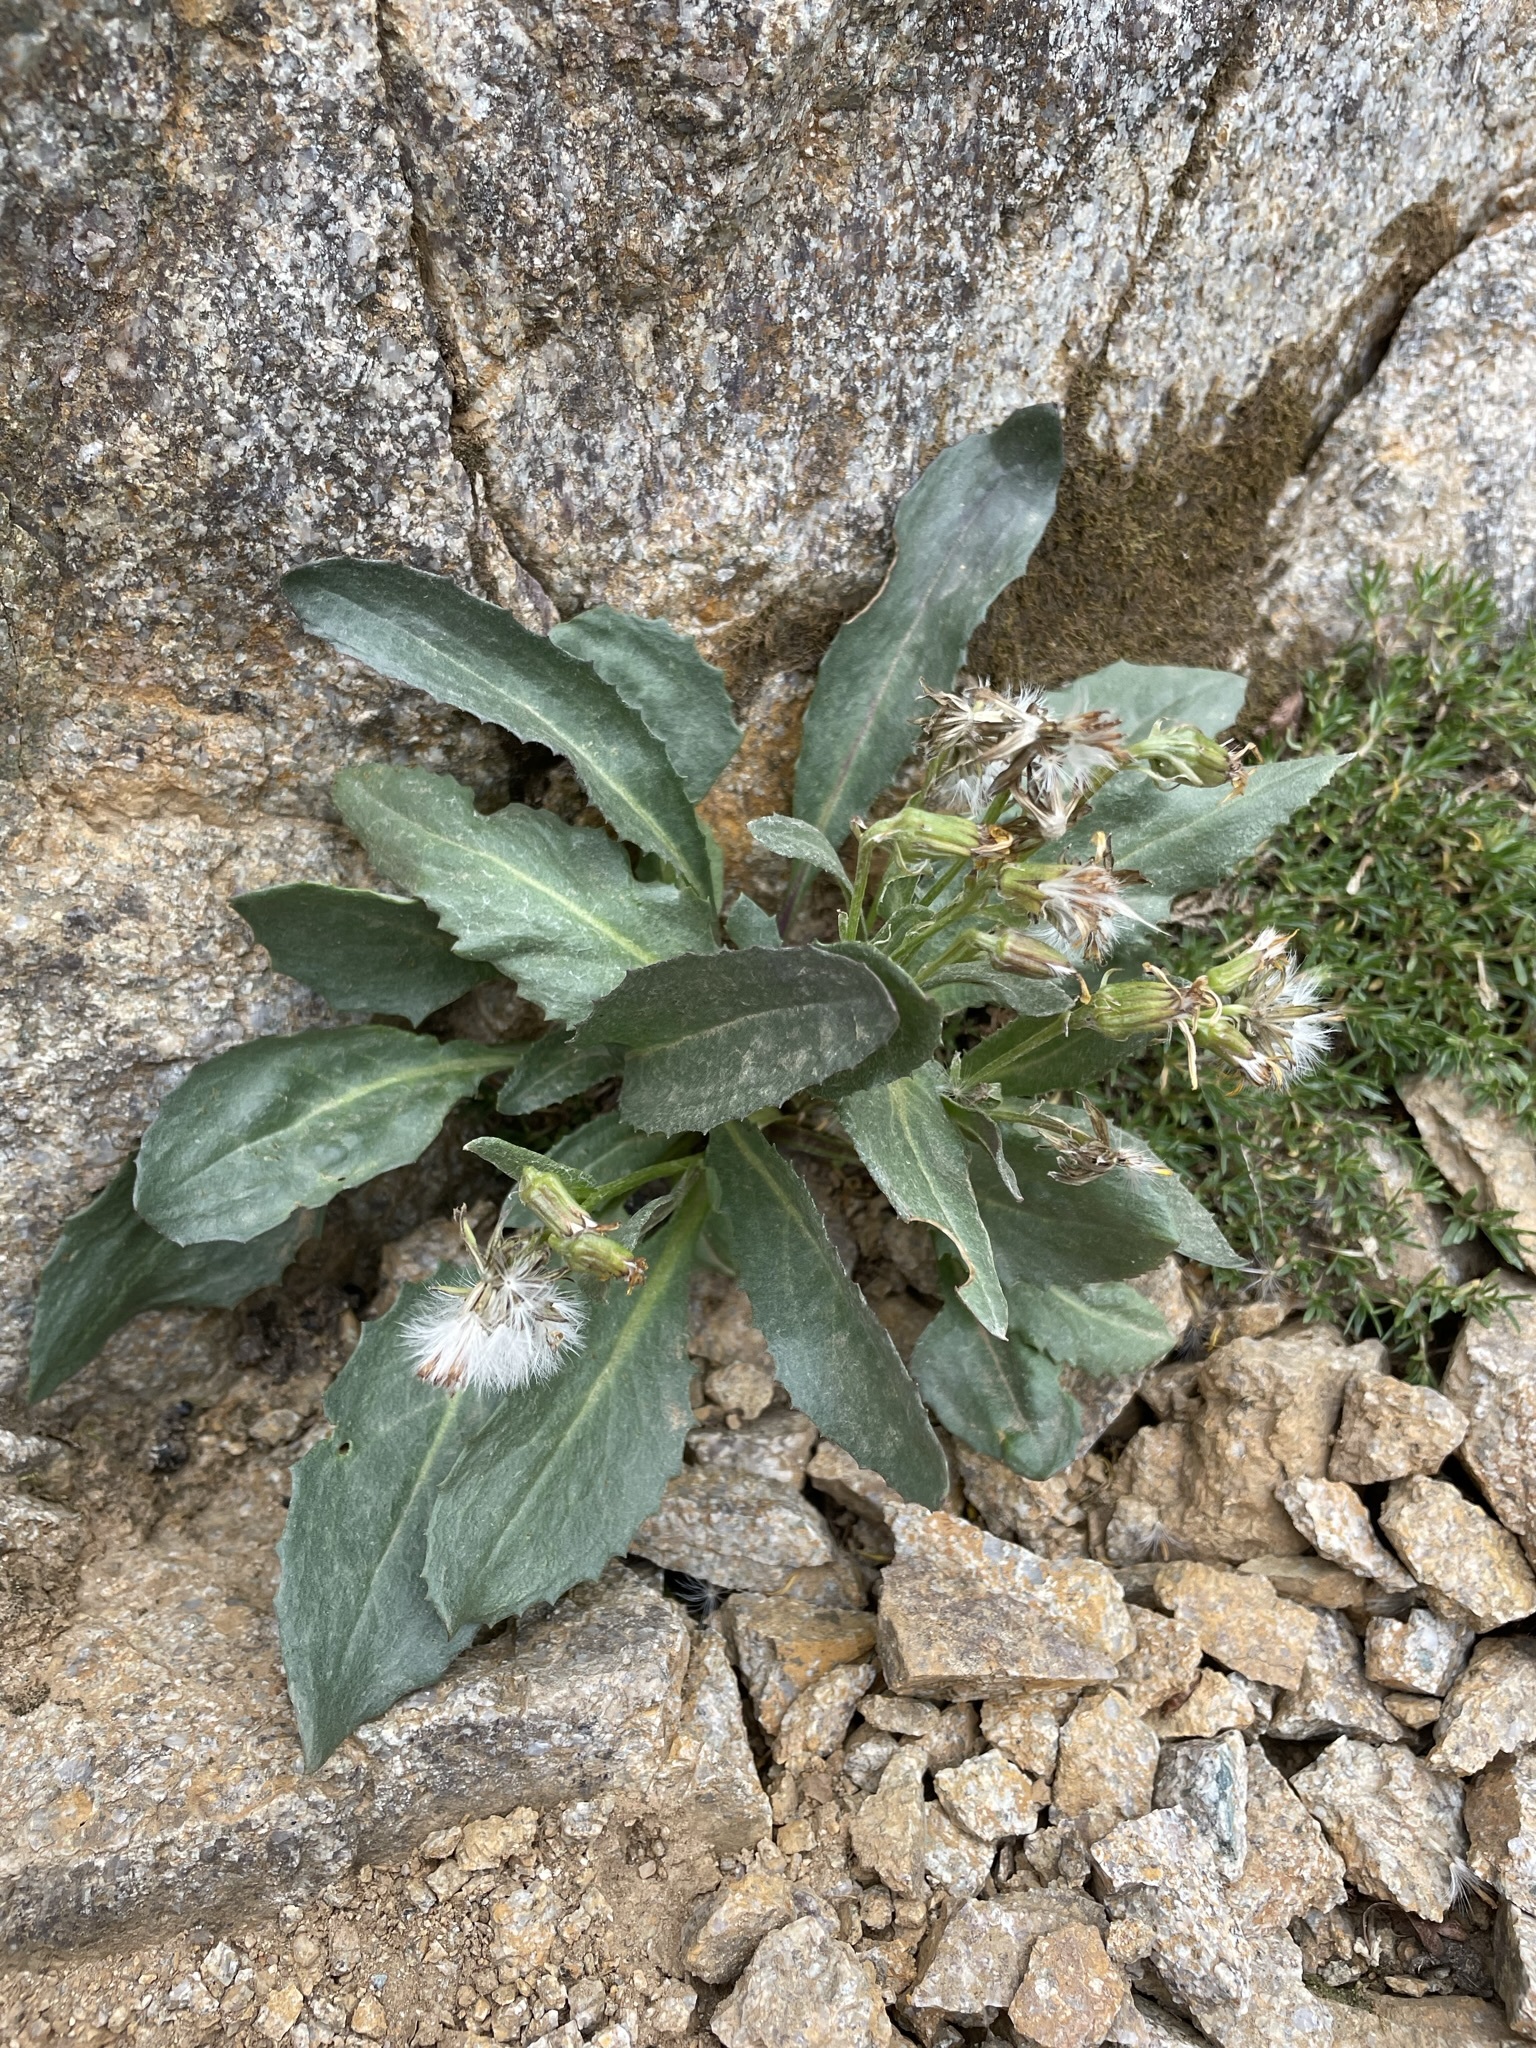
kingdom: Plantae
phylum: Tracheophyta
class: Magnoliopsida
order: Asterales
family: Asteraceae
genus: Senecio
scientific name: Senecio elmeri
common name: Elmer's butterweed
